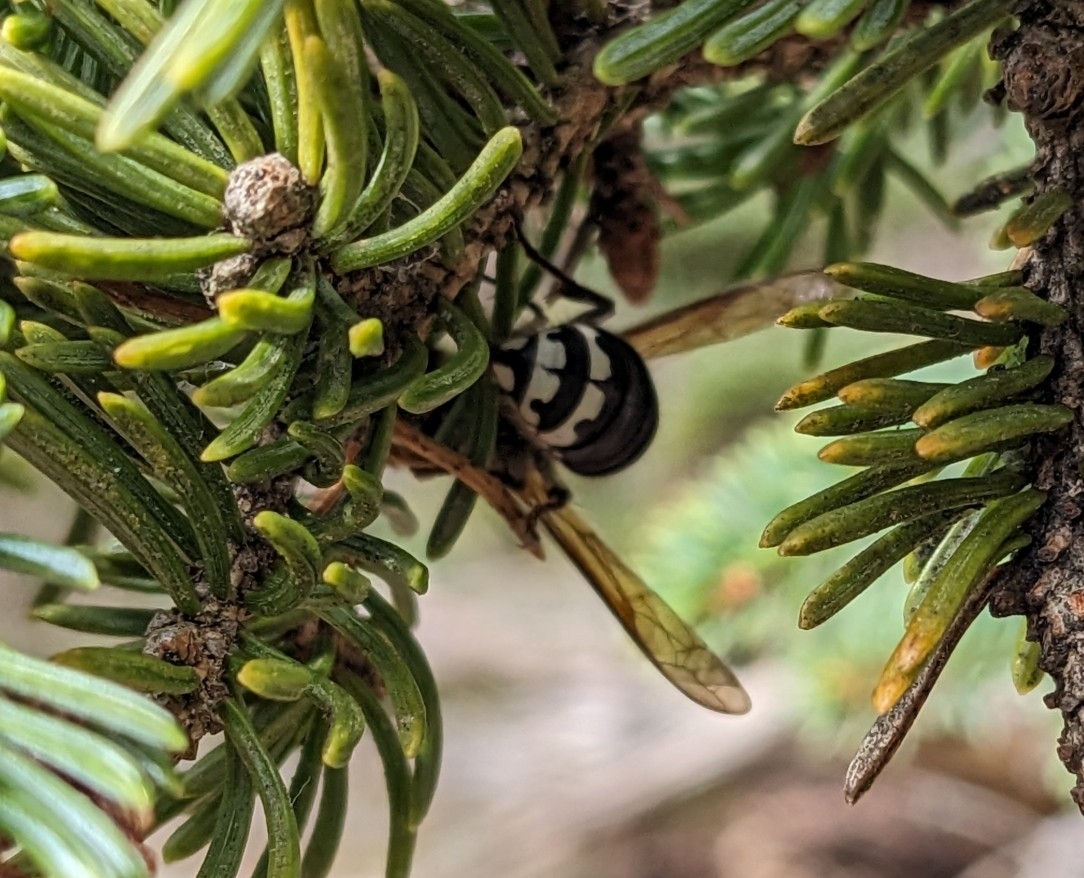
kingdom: Animalia
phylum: Arthropoda
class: Insecta
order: Hymenoptera
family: Vespidae
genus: Dolichovespula
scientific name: Dolichovespula maculata
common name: Bald-faced hornet
